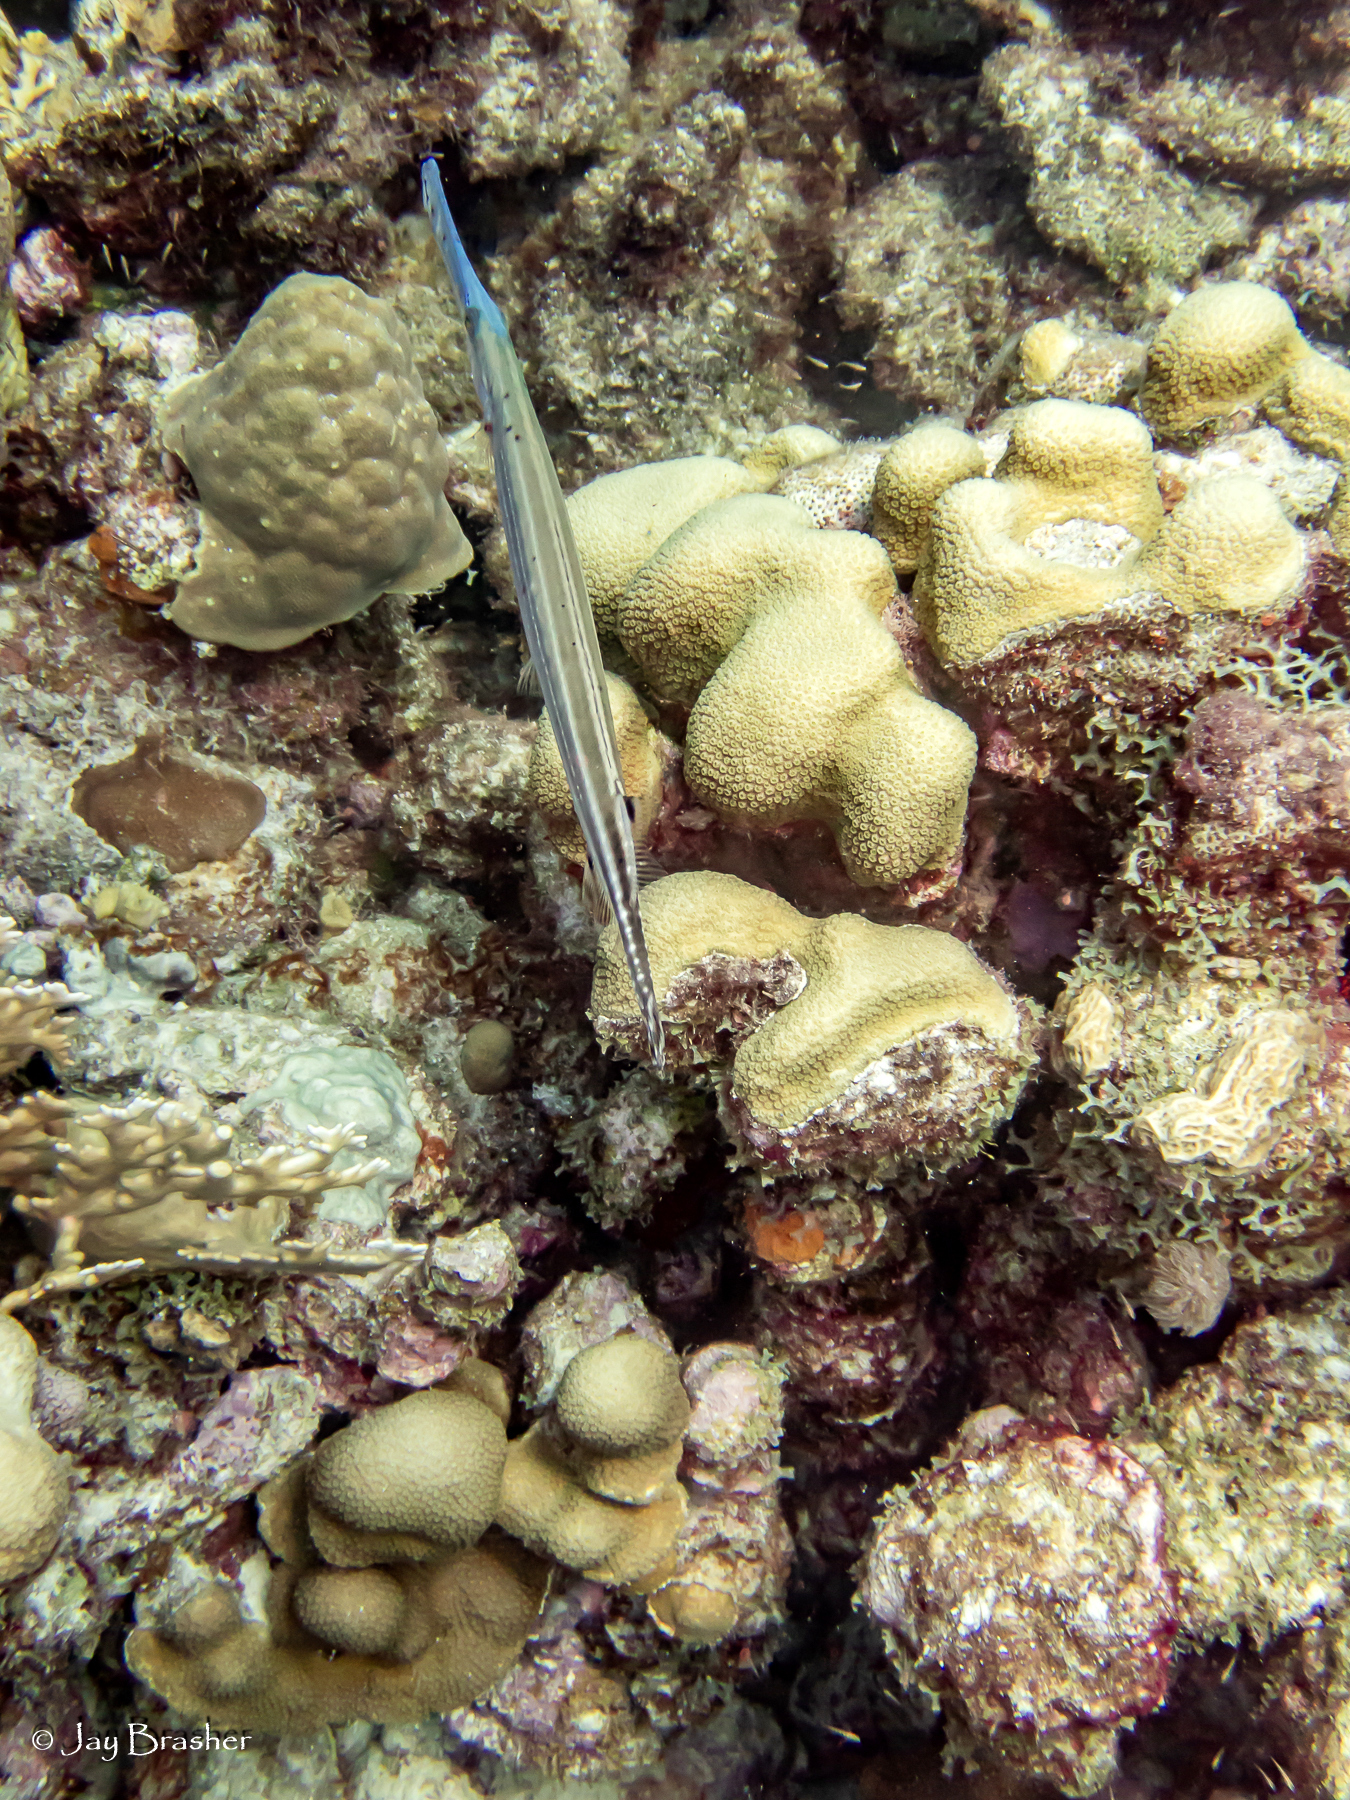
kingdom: Animalia
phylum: Cnidaria
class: Anthozoa
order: Scleractinia
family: Poritidae
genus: Porites
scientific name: Porites astreoides
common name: Mustard hill coral
